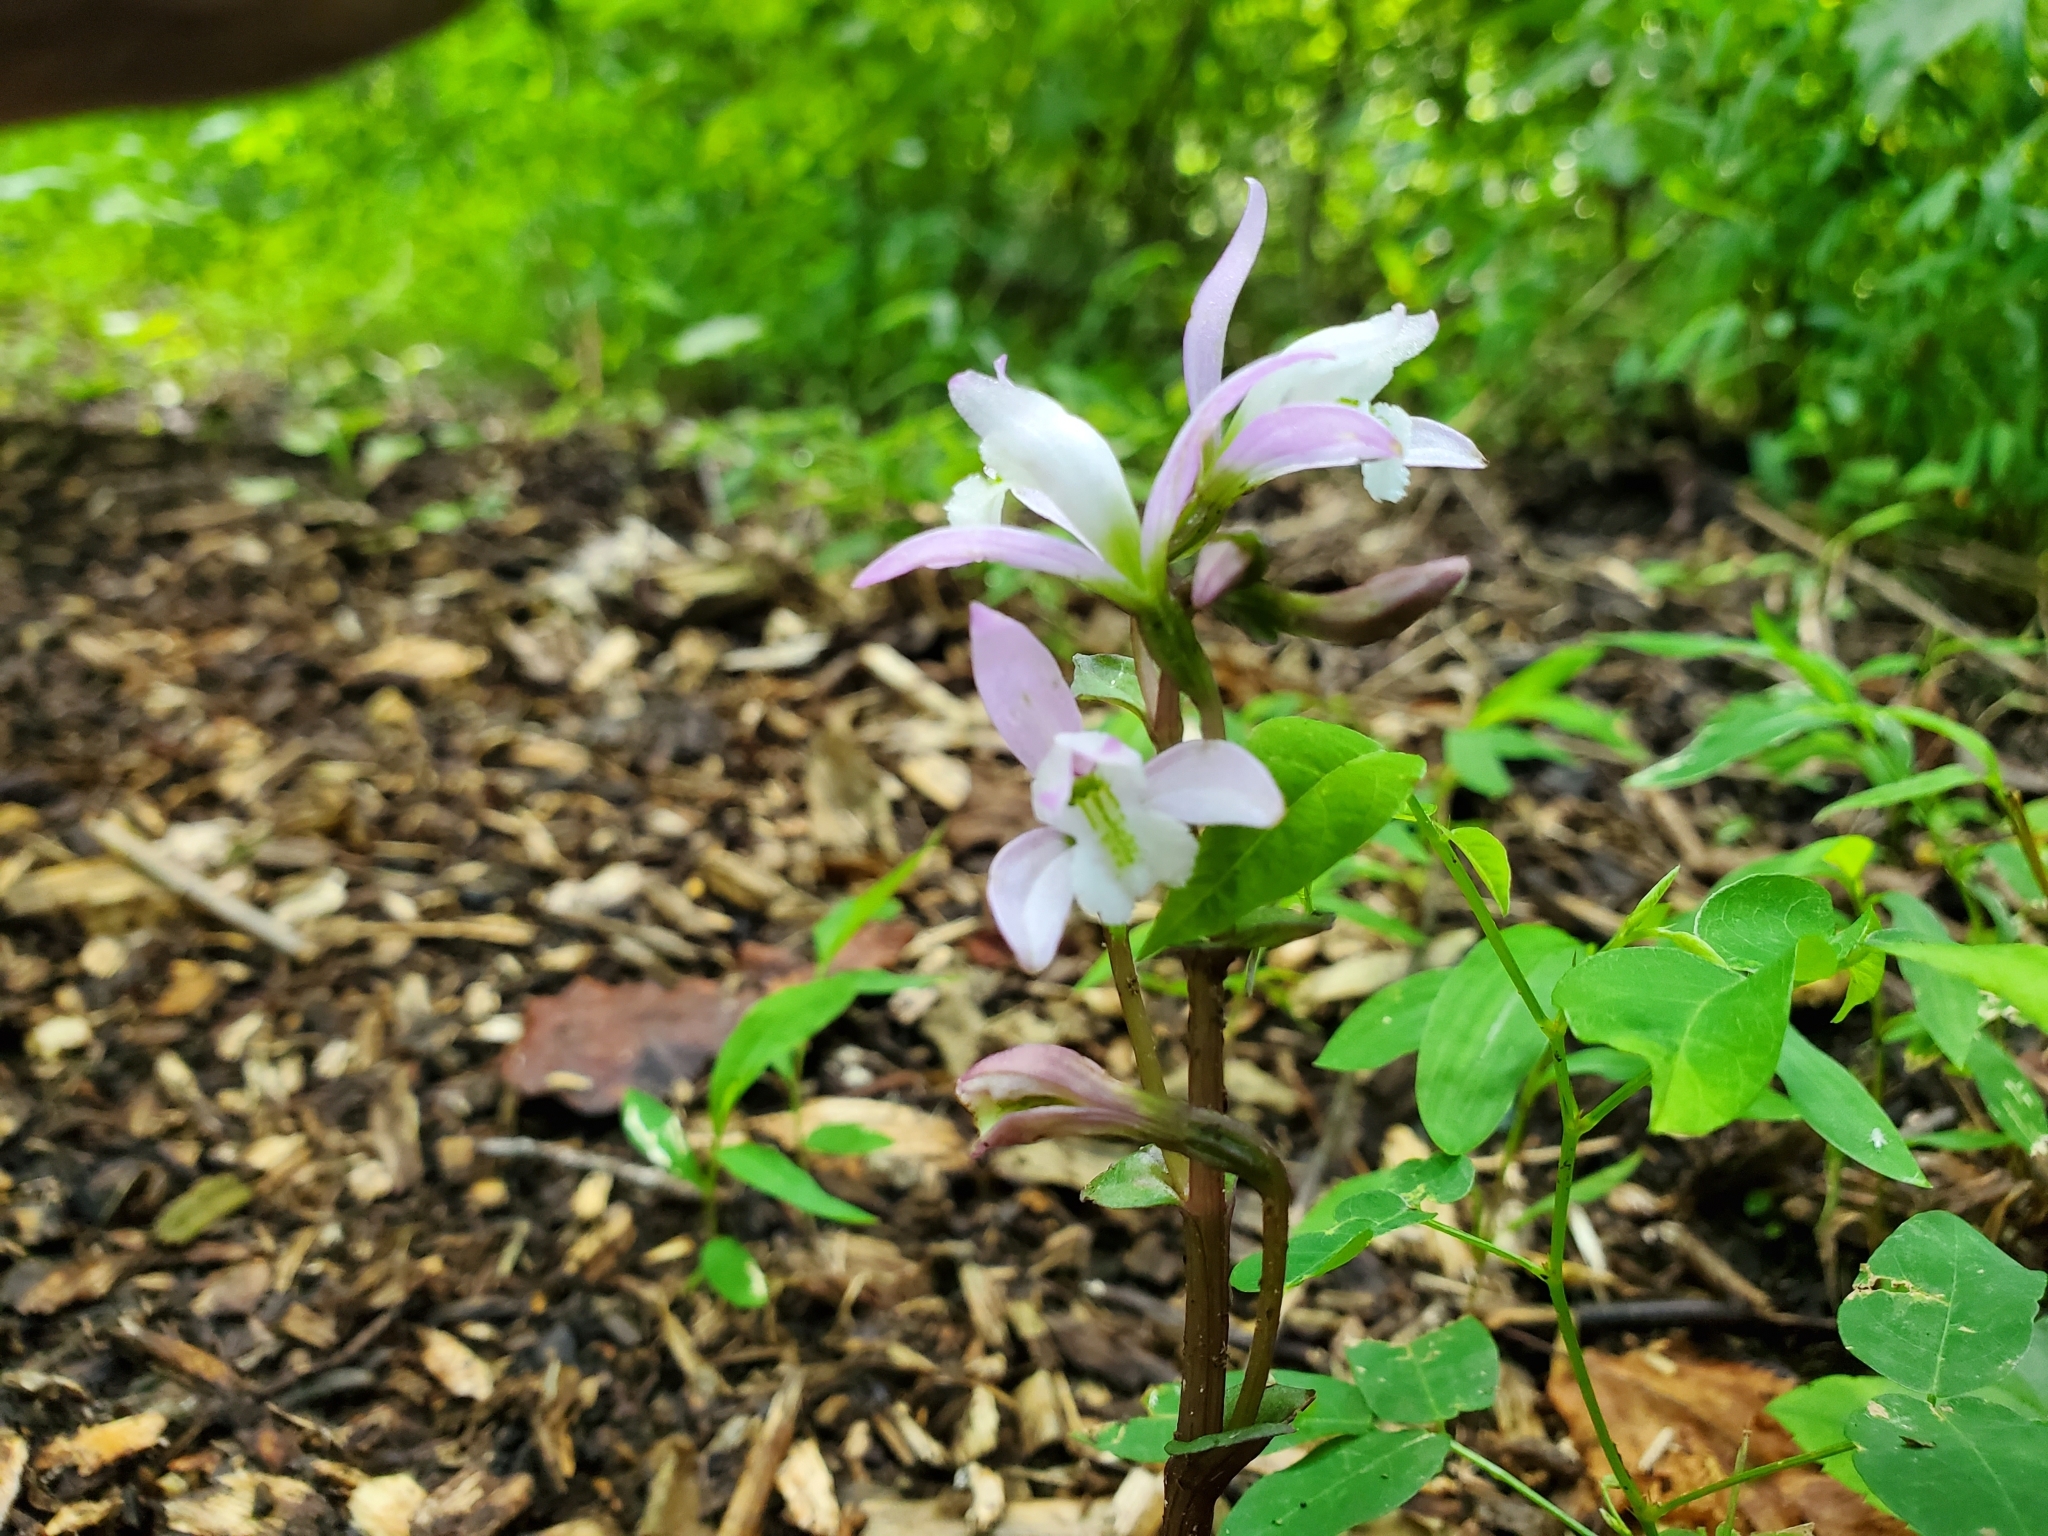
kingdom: Plantae
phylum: Tracheophyta
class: Liliopsida
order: Asparagales
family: Orchidaceae
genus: Triphora
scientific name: Triphora trianthophoros
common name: Three birds orchid
